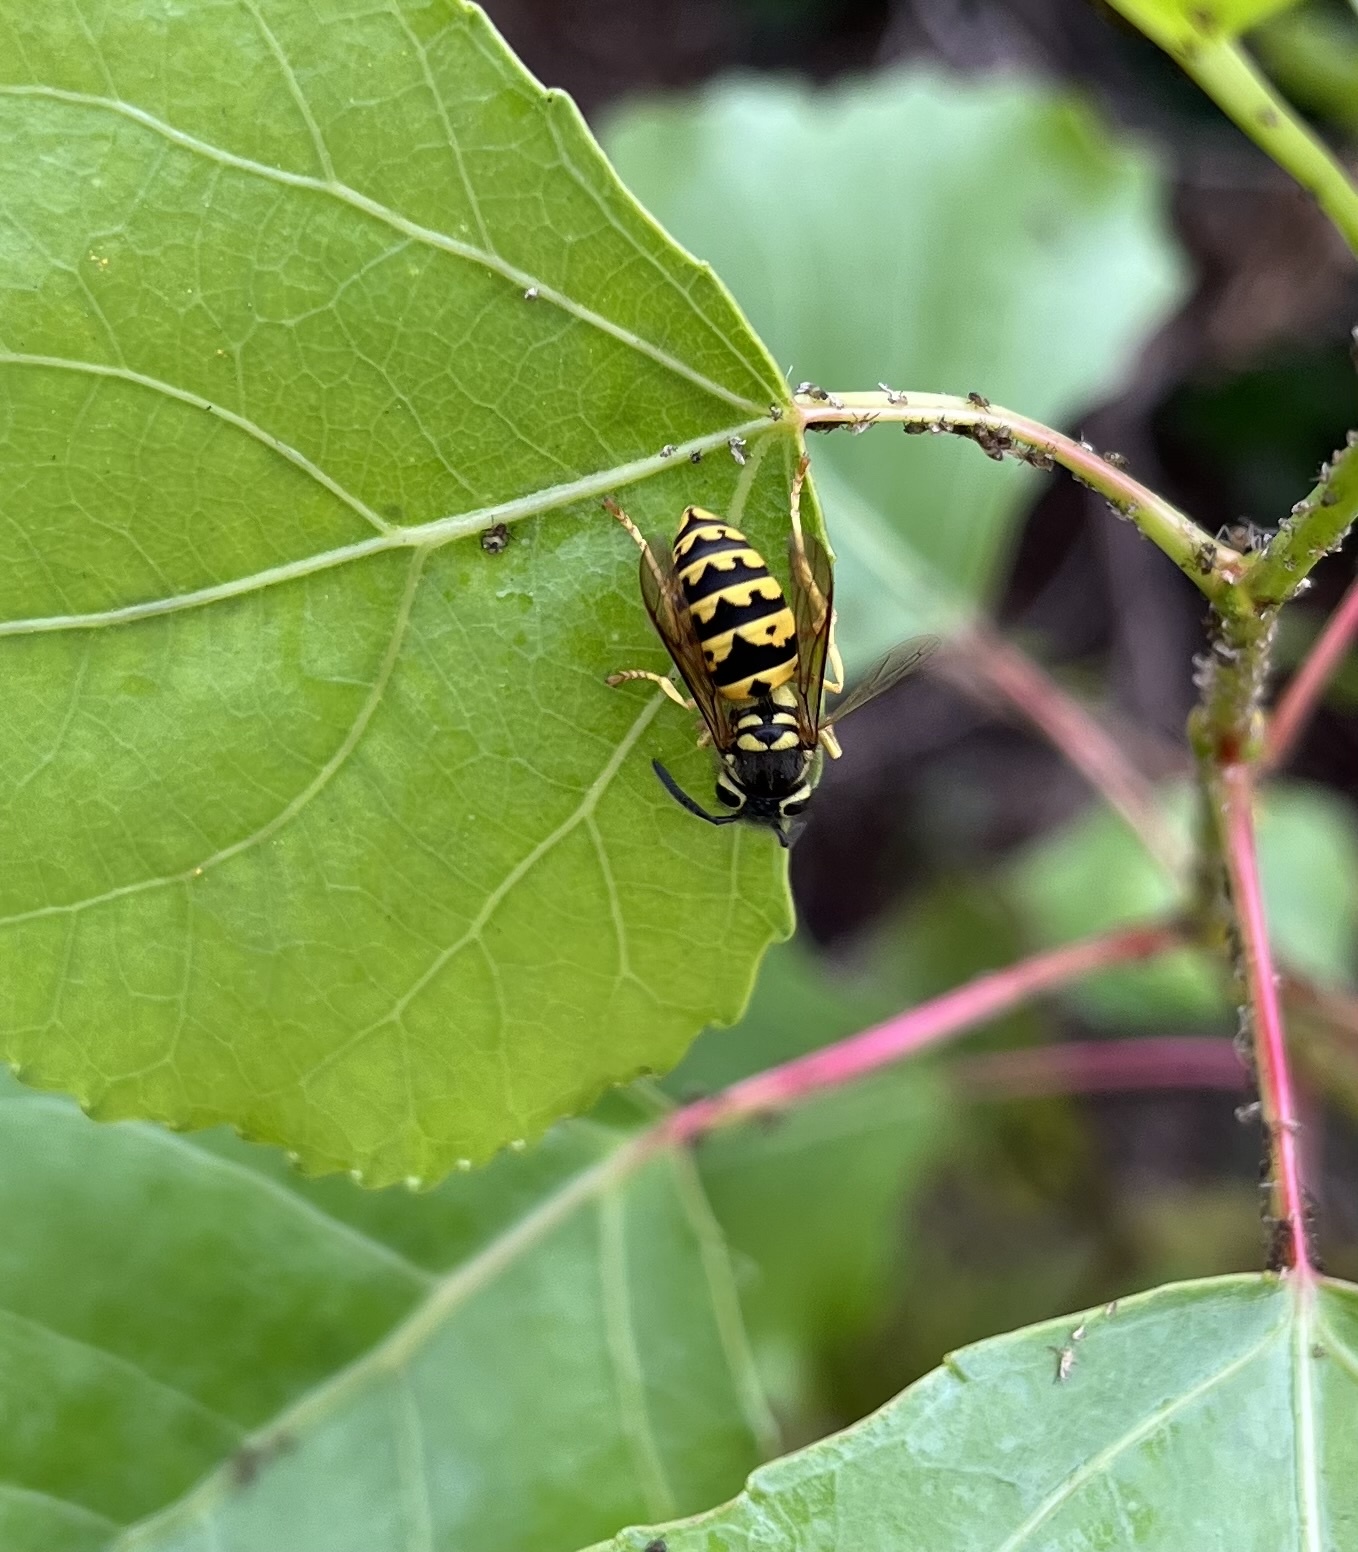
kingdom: Animalia
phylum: Arthropoda
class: Insecta
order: Hymenoptera
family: Vespidae
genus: Vespula
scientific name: Vespula pensylvanica
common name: Western yellowjacket
